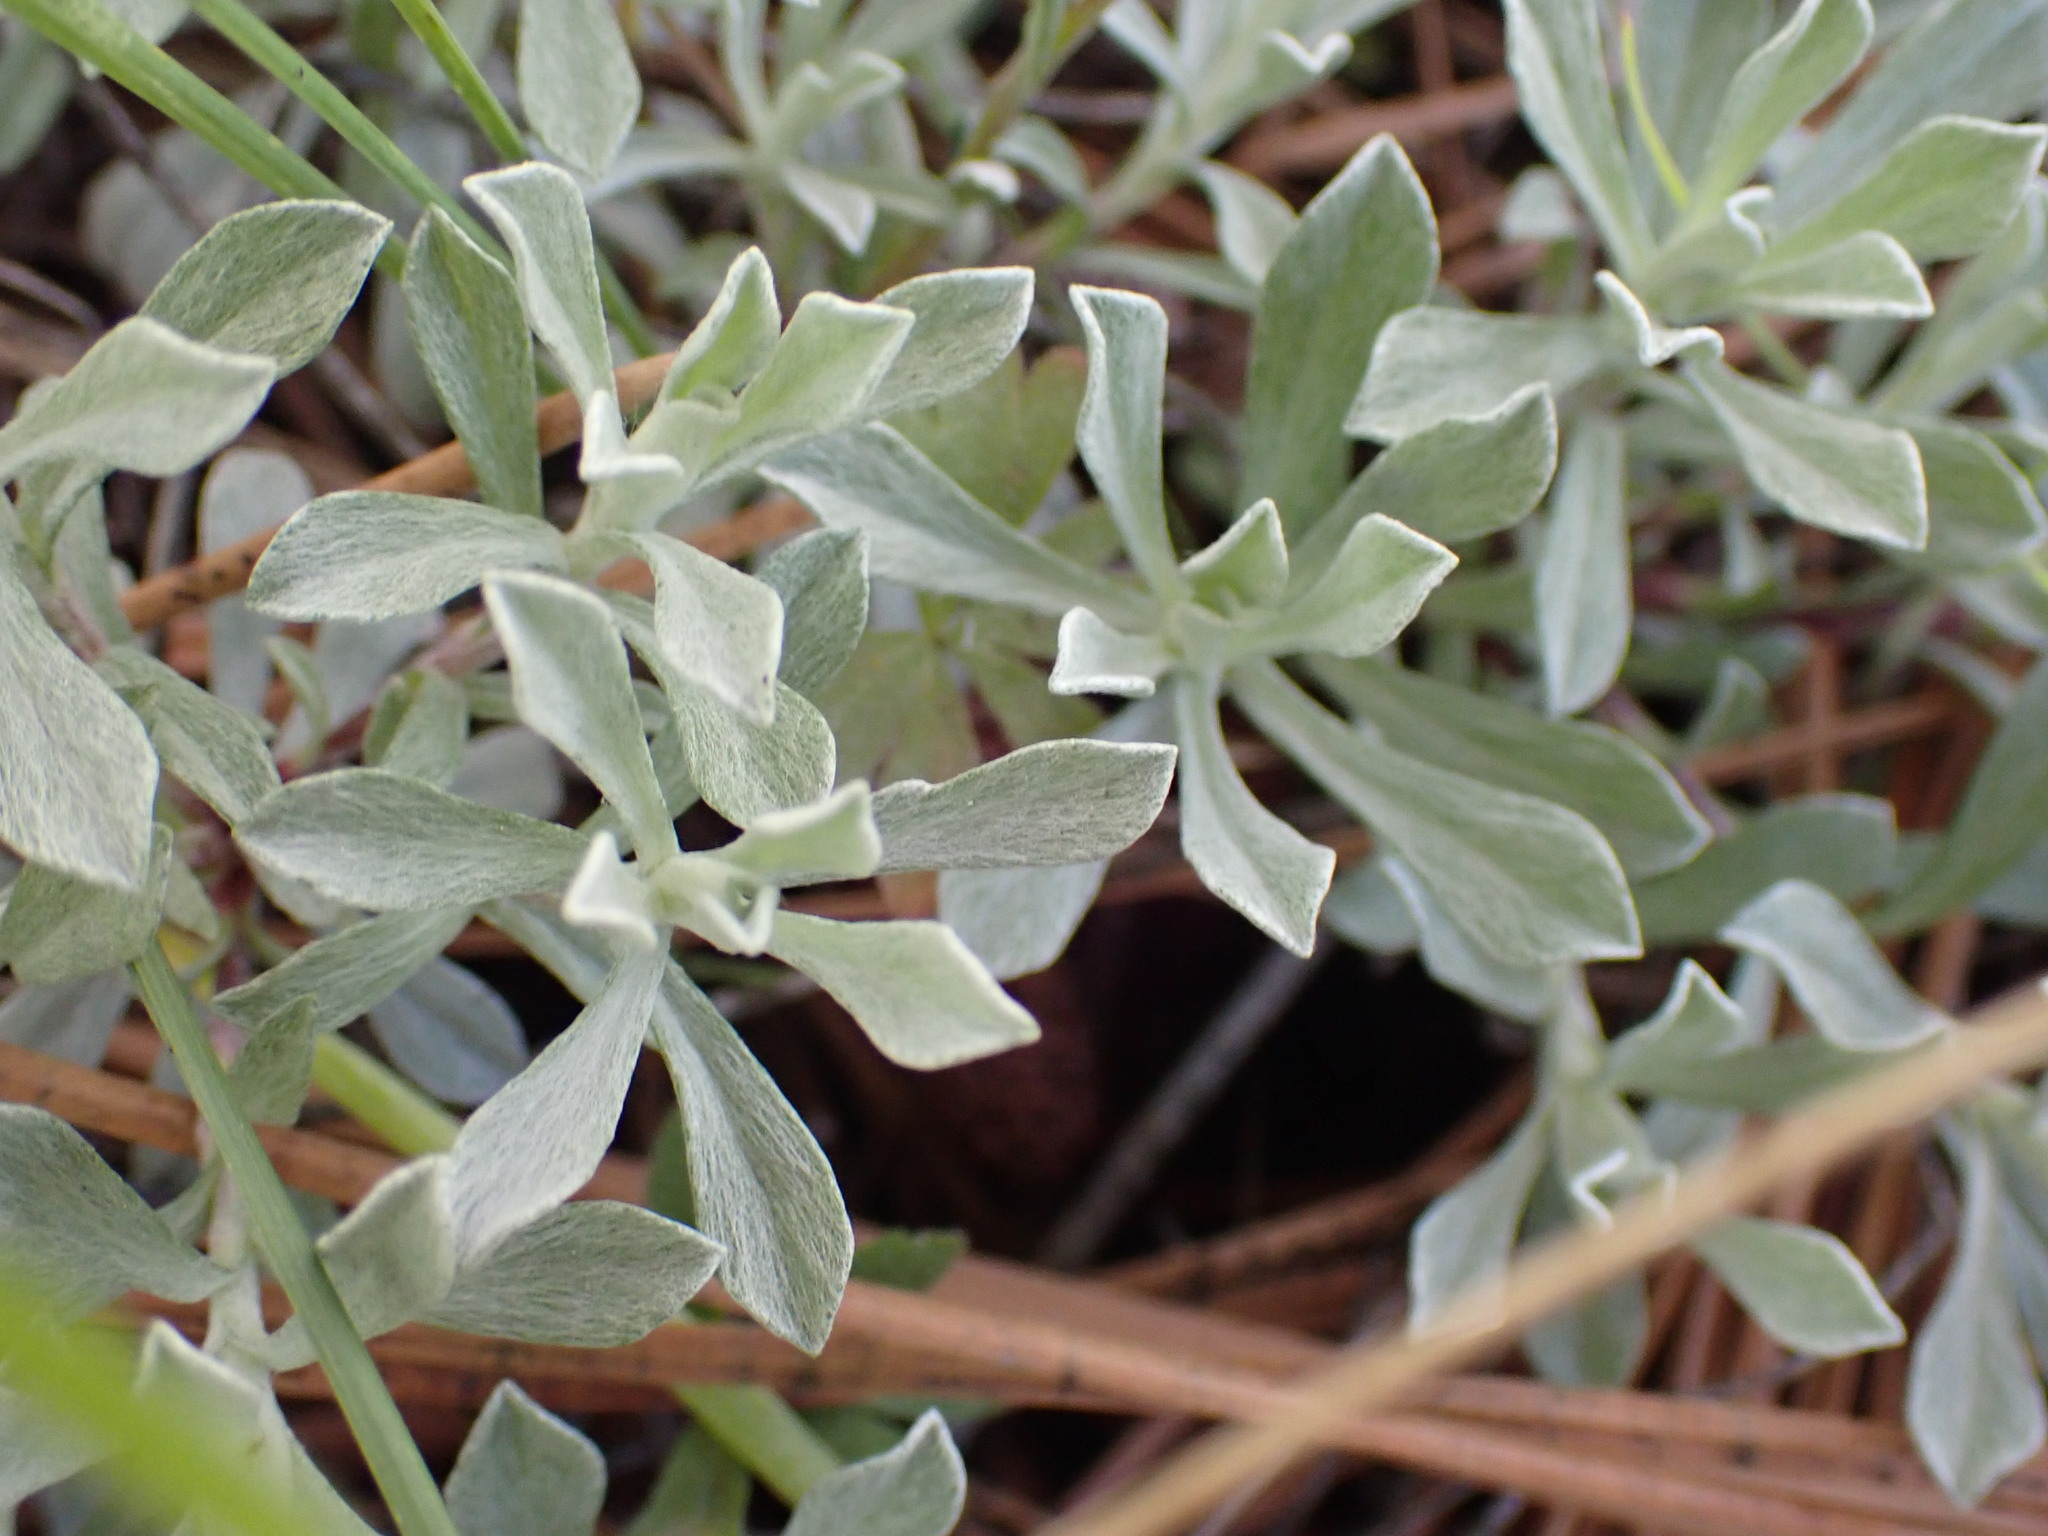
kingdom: Plantae
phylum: Tracheophyta
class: Magnoliopsida
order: Asterales
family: Asteraceae
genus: Antennaria
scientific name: Antennaria umbrinella
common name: Brown pussytoes
